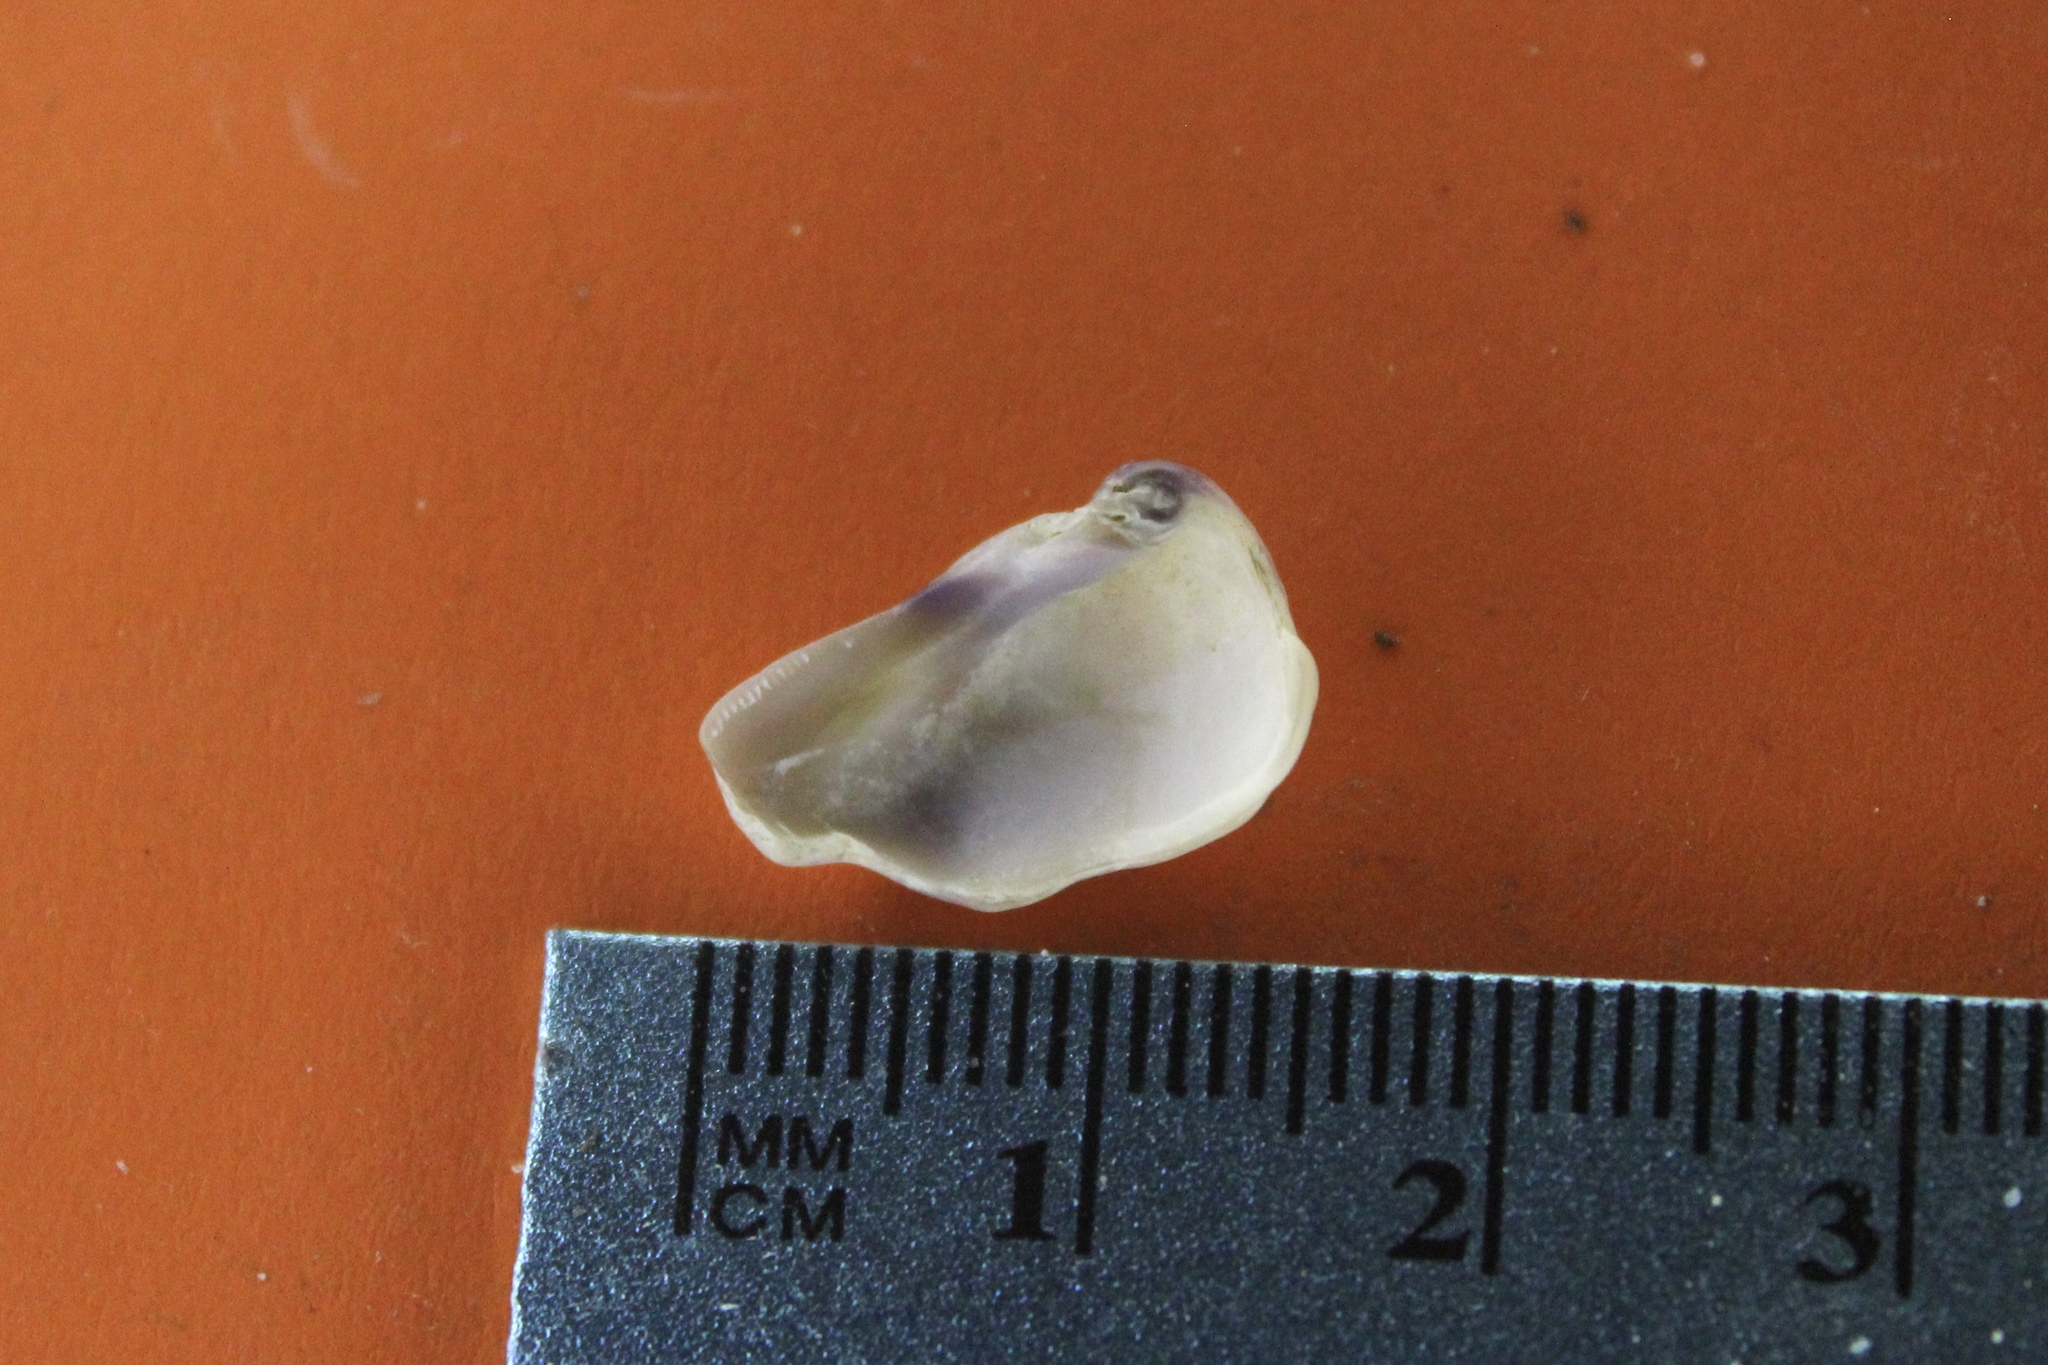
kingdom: Animalia
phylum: Mollusca
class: Bivalvia
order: Venerida
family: Cyrenidae
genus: Corbicula
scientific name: Corbicula fluminea
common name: Asian clam
